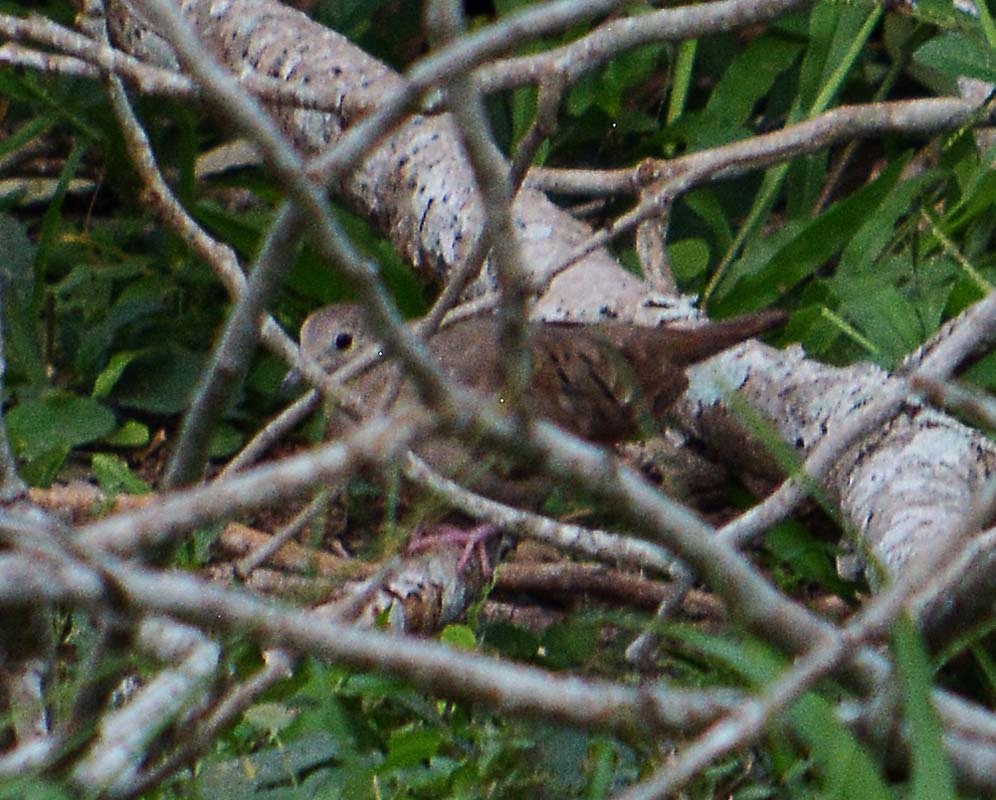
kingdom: Animalia
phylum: Chordata
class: Aves
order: Columbiformes
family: Columbidae
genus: Columbina
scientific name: Columbina talpacoti
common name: Ruddy ground dove
